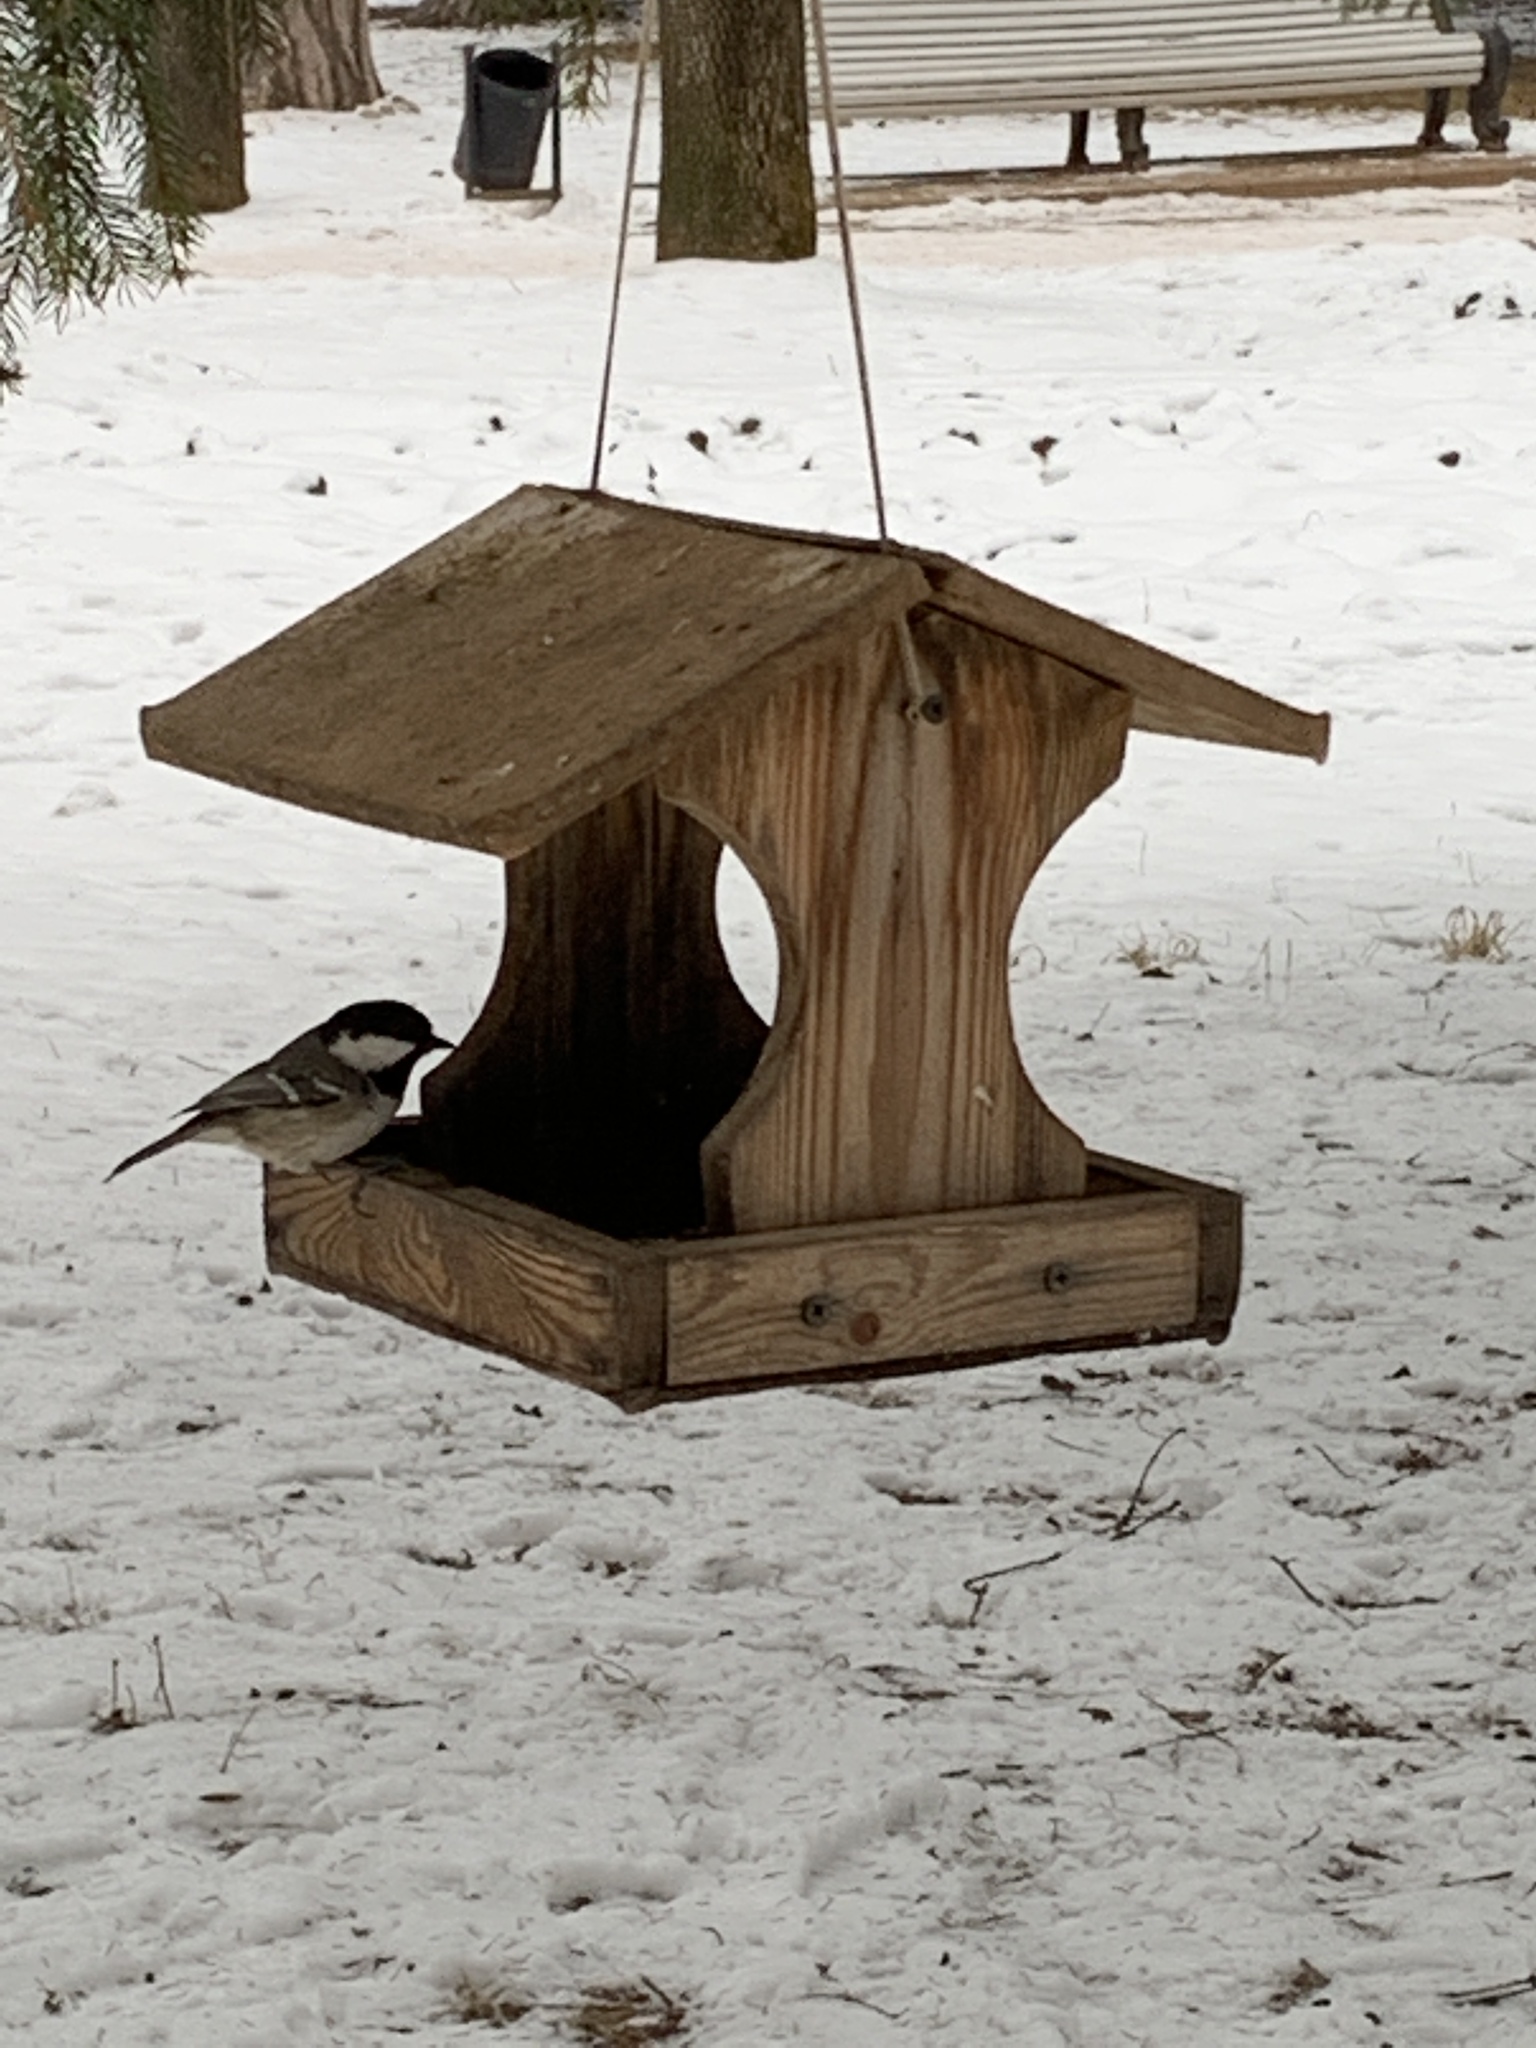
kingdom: Animalia
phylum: Chordata
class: Aves
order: Passeriformes
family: Paridae
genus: Periparus
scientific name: Periparus ater
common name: Coal tit
